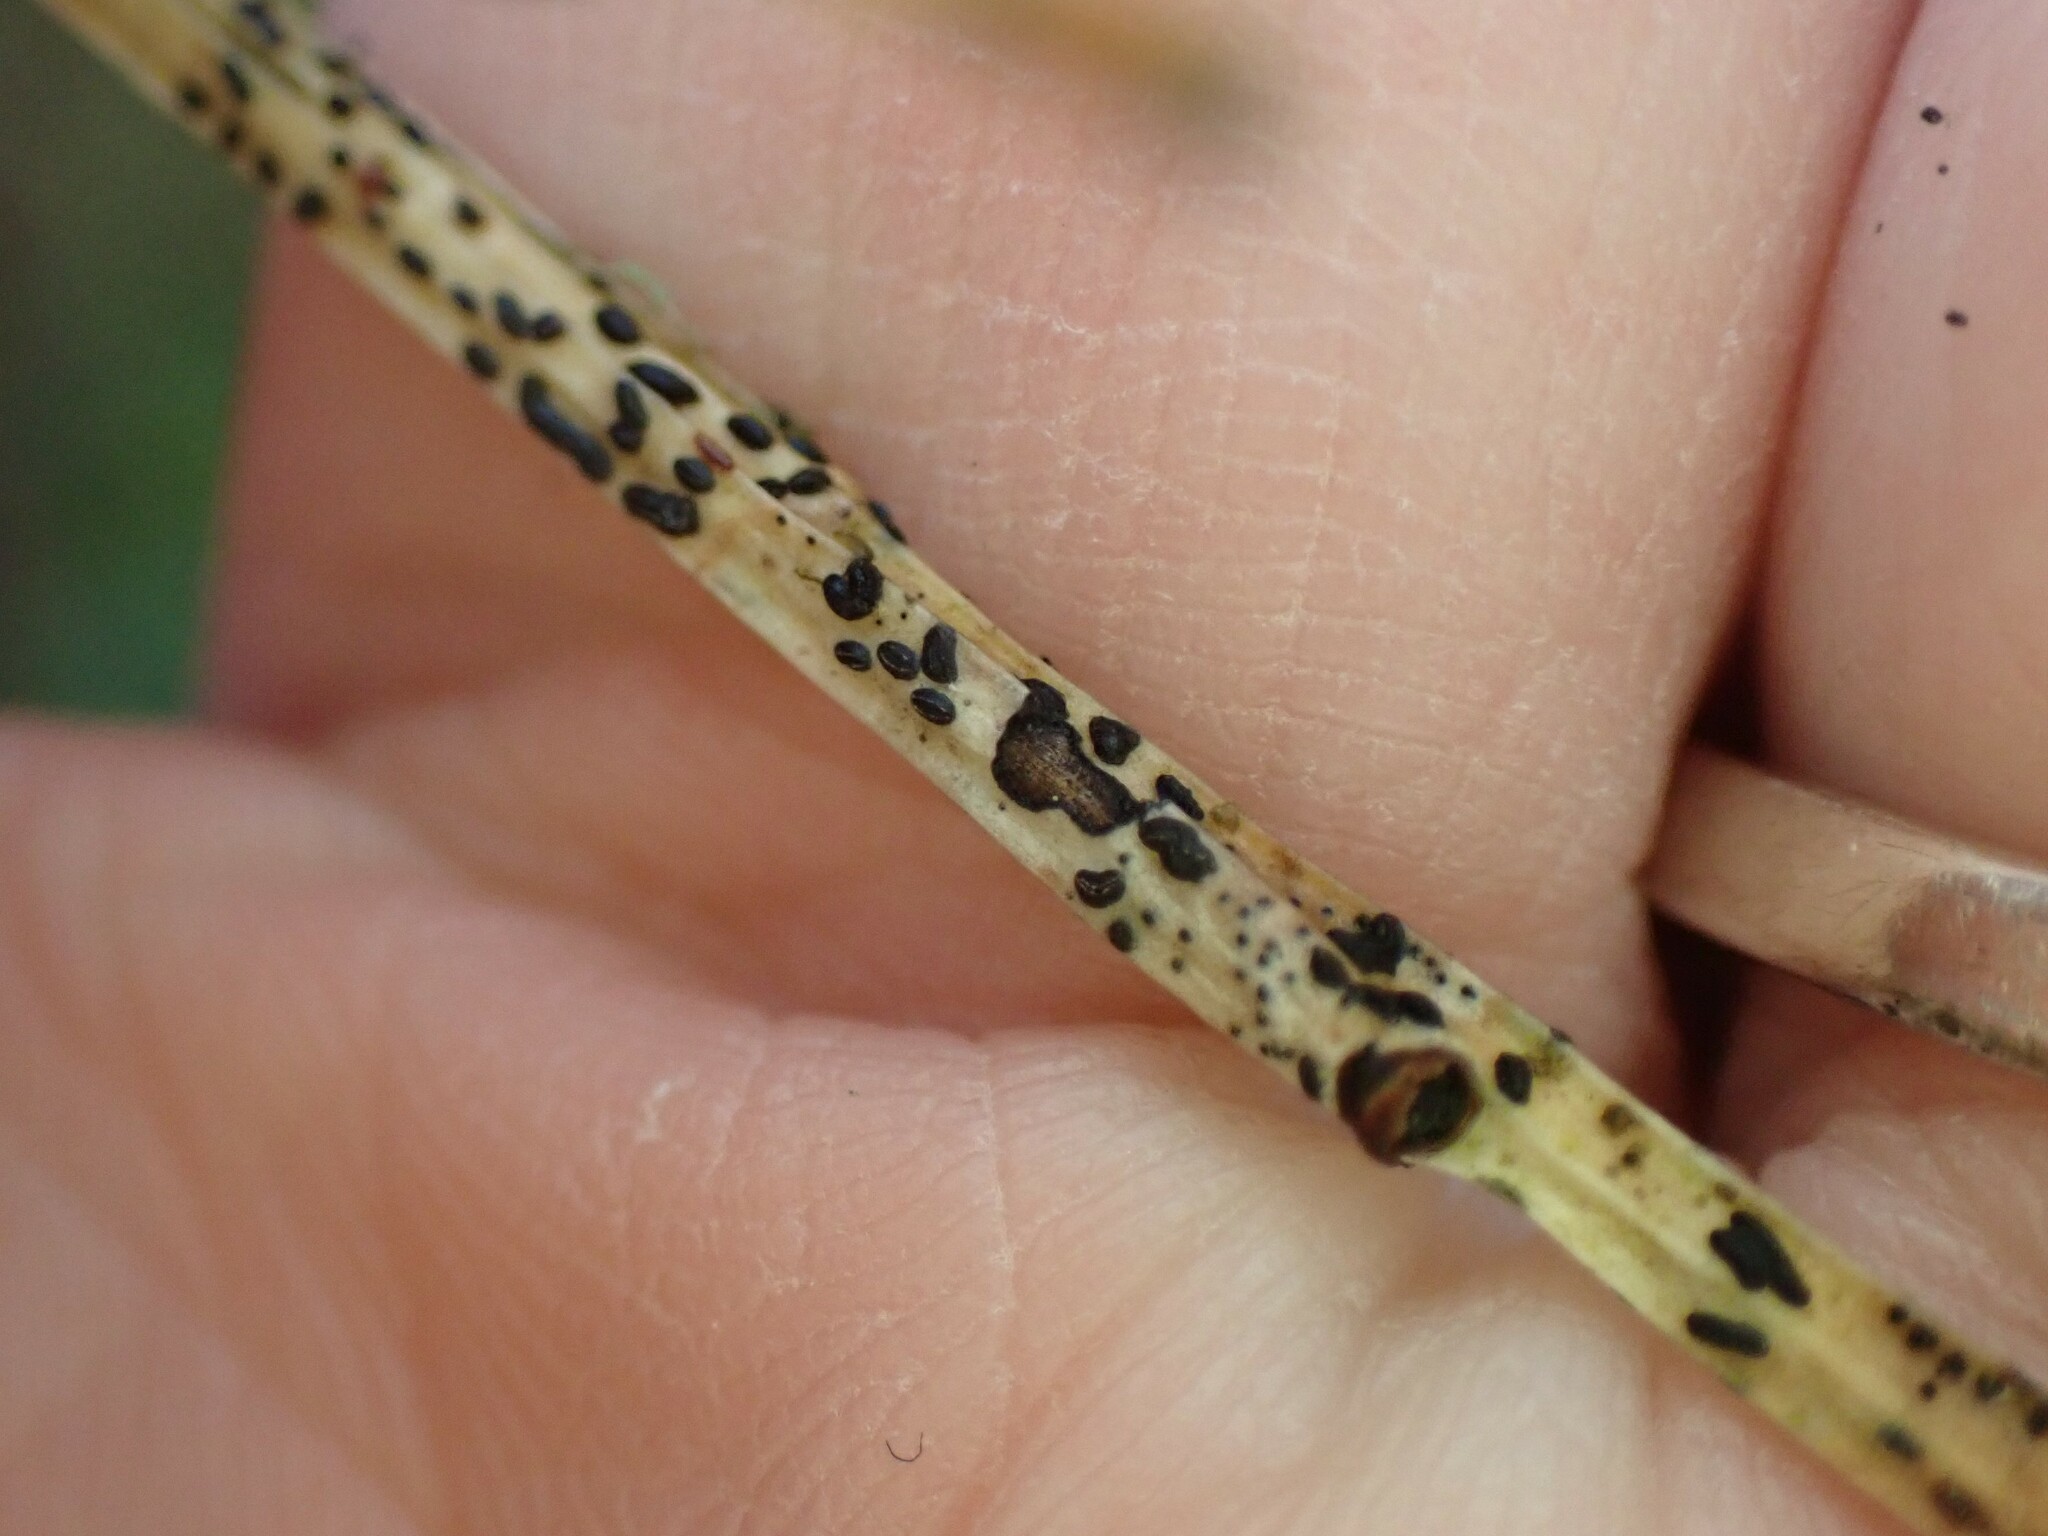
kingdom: Fungi
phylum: Ascomycota
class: Leotiomycetes
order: Rhytismatales
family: Rhytismataceae
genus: Lophodermium
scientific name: Lophodermium maculare
